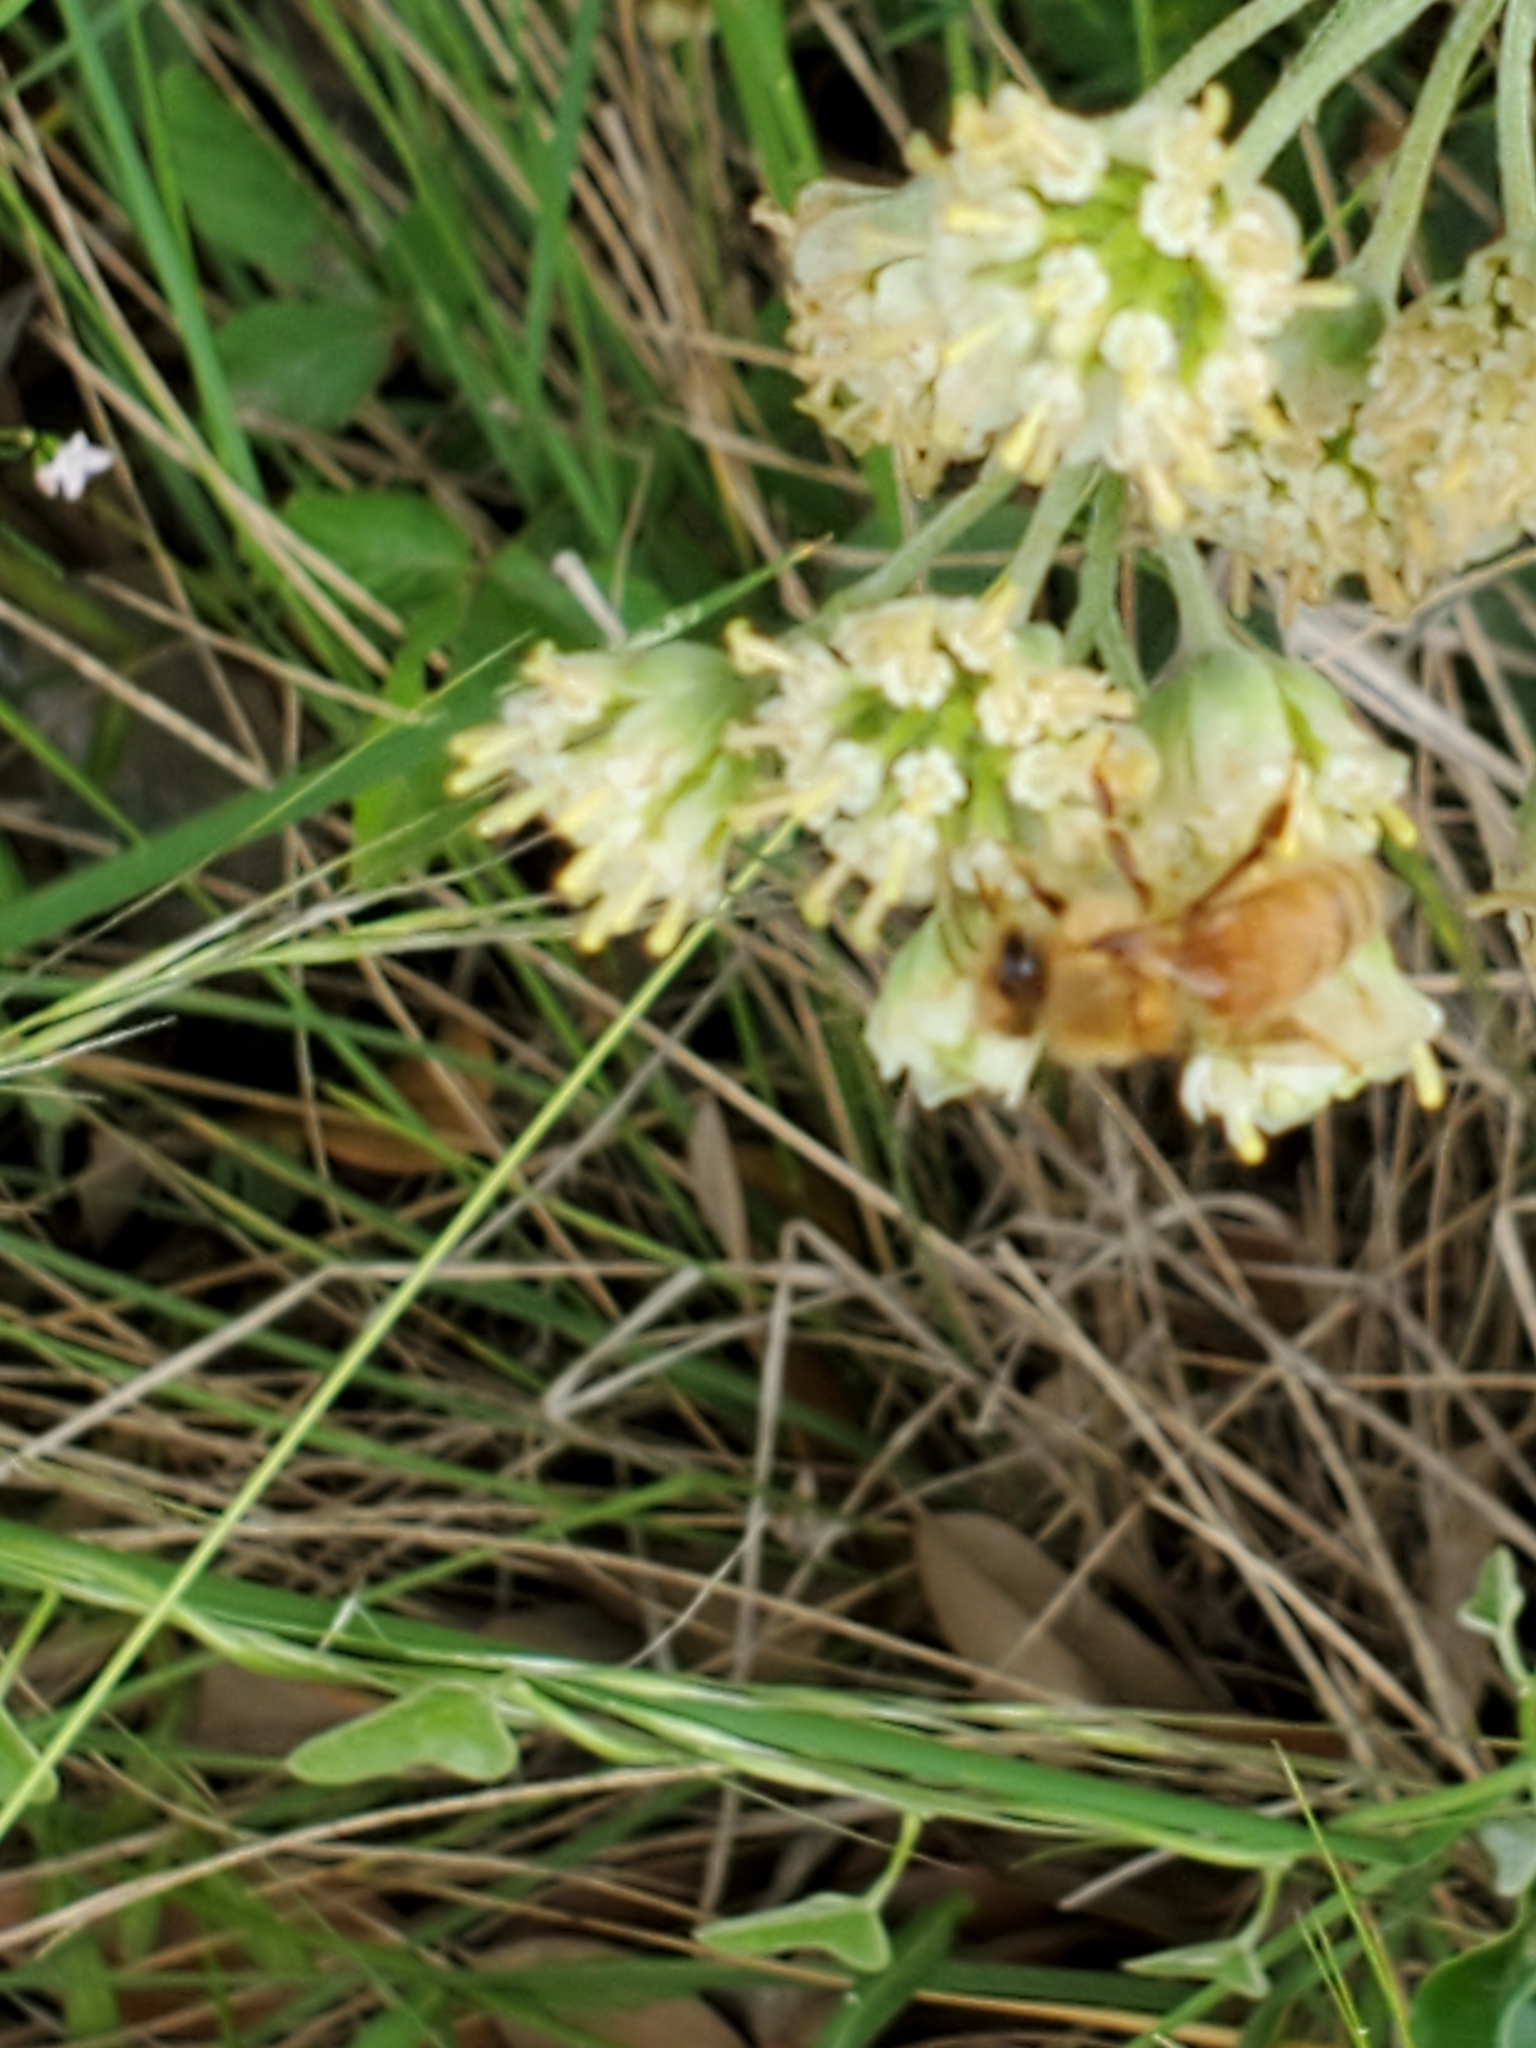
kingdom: Animalia
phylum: Arthropoda
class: Insecta
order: Hymenoptera
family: Apidae
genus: Apis
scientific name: Apis mellifera
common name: Honey bee
